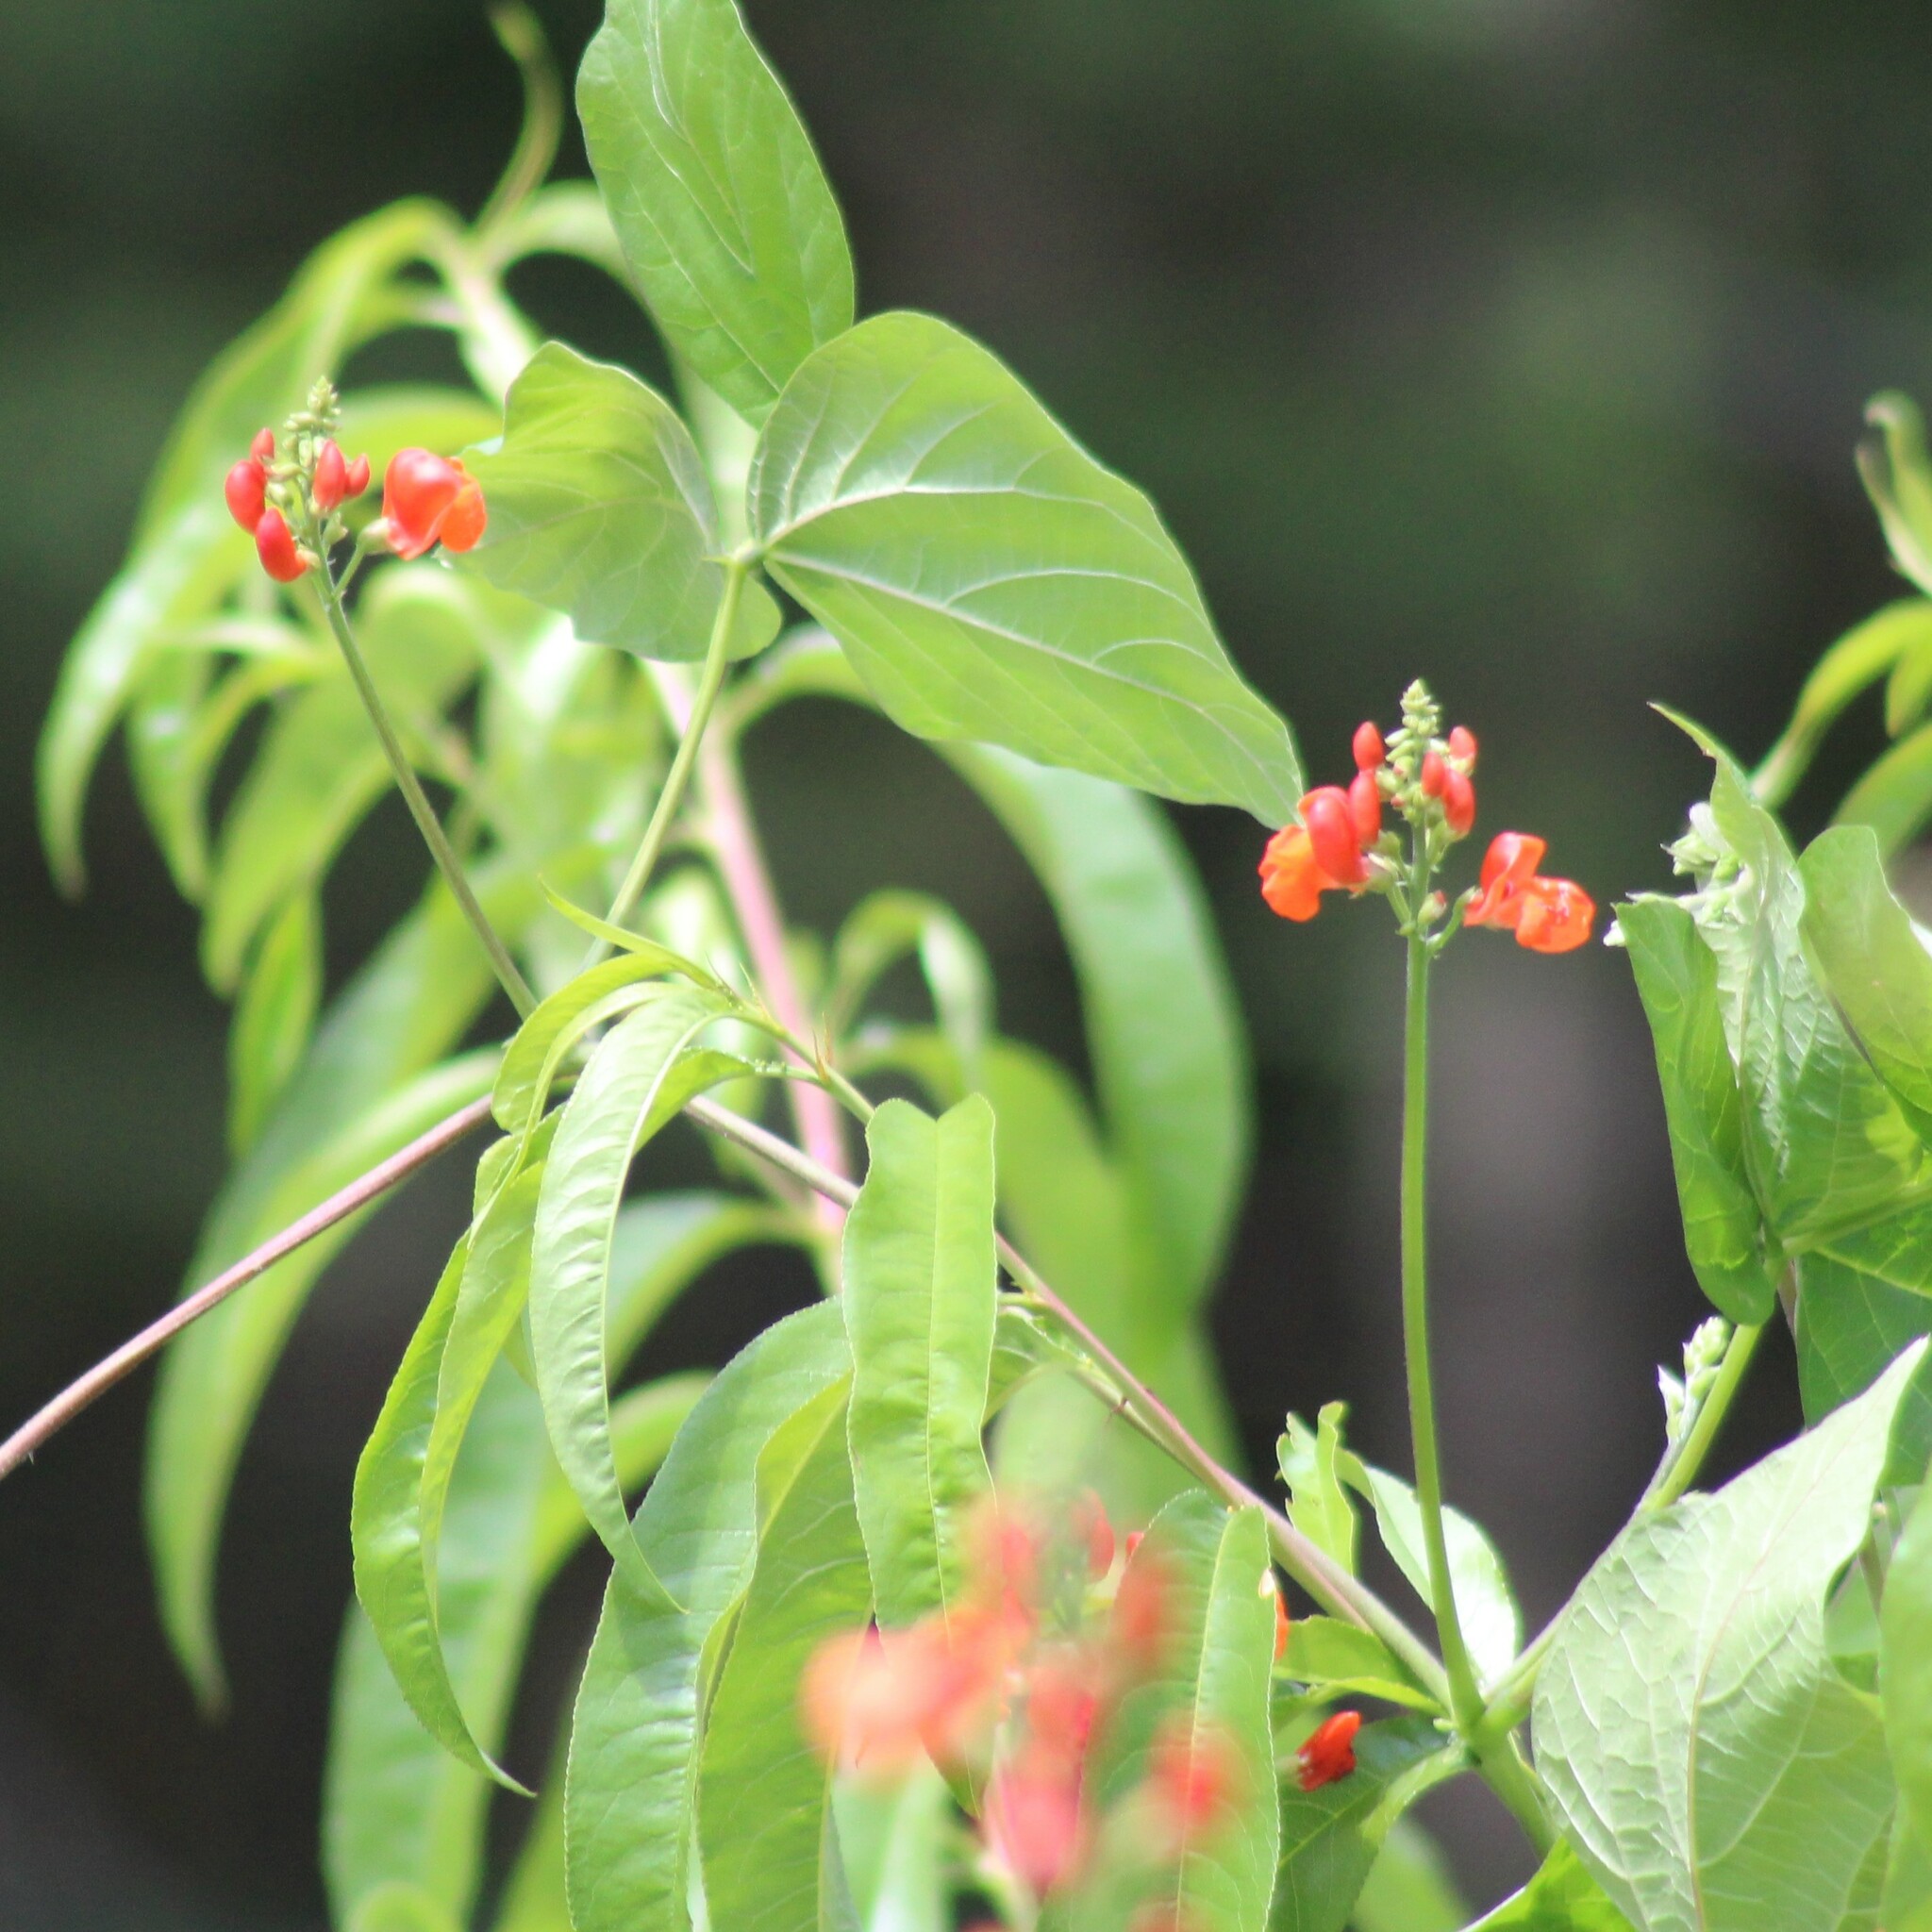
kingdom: Plantae
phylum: Tracheophyta
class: Magnoliopsida
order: Fabales
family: Fabaceae
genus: Phaseolus
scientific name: Phaseolus coccineus
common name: Runner bean
